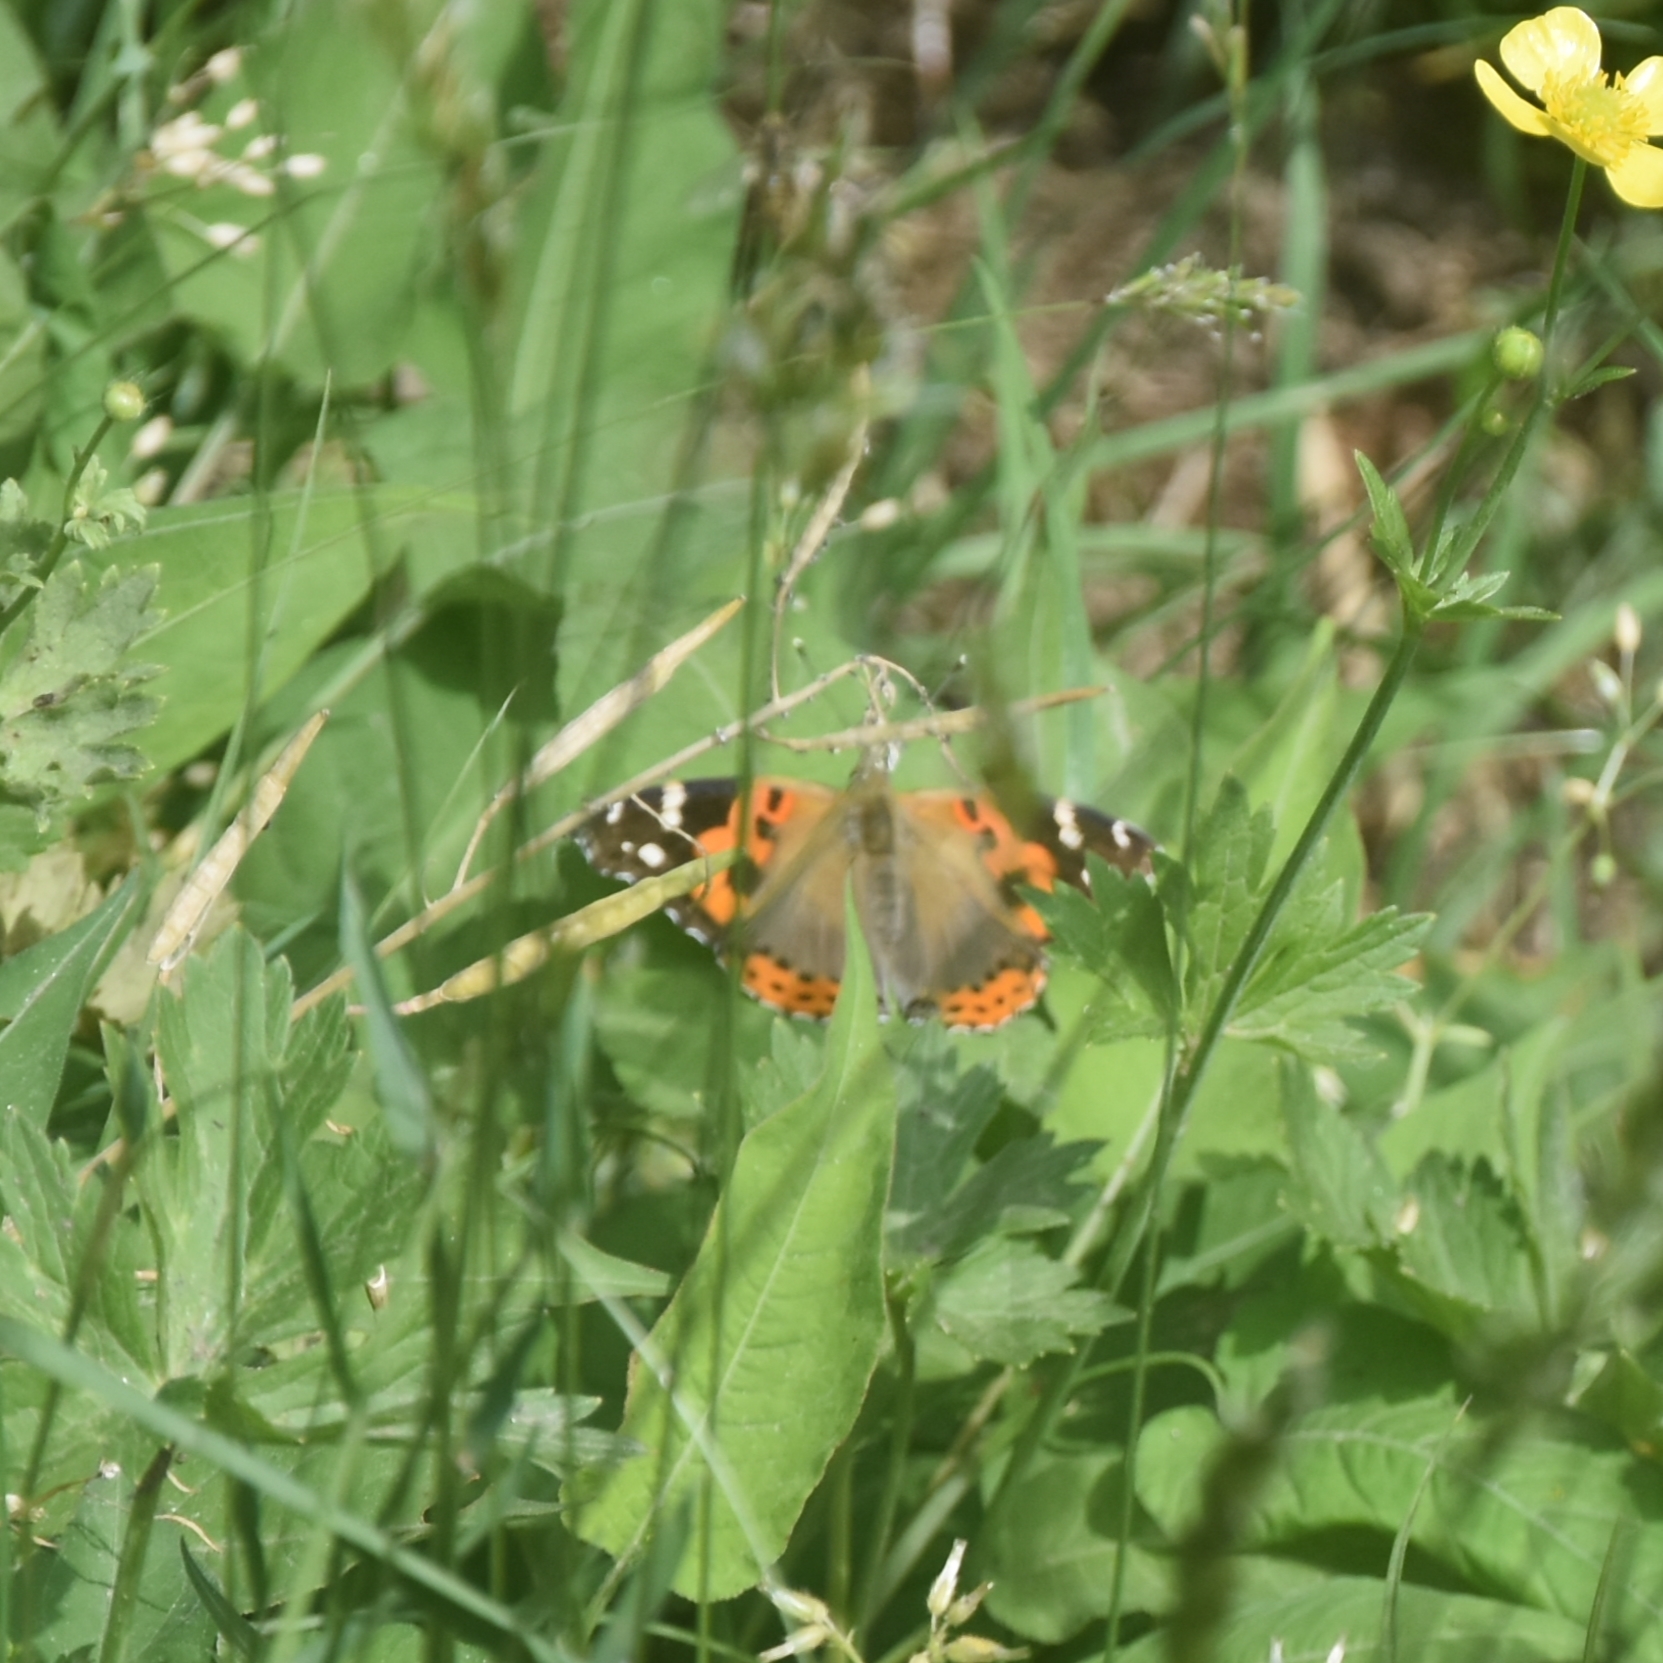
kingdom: Animalia
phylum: Arthropoda
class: Insecta
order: Lepidoptera
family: Nymphalidae
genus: Vanessa
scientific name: Vanessa indica
